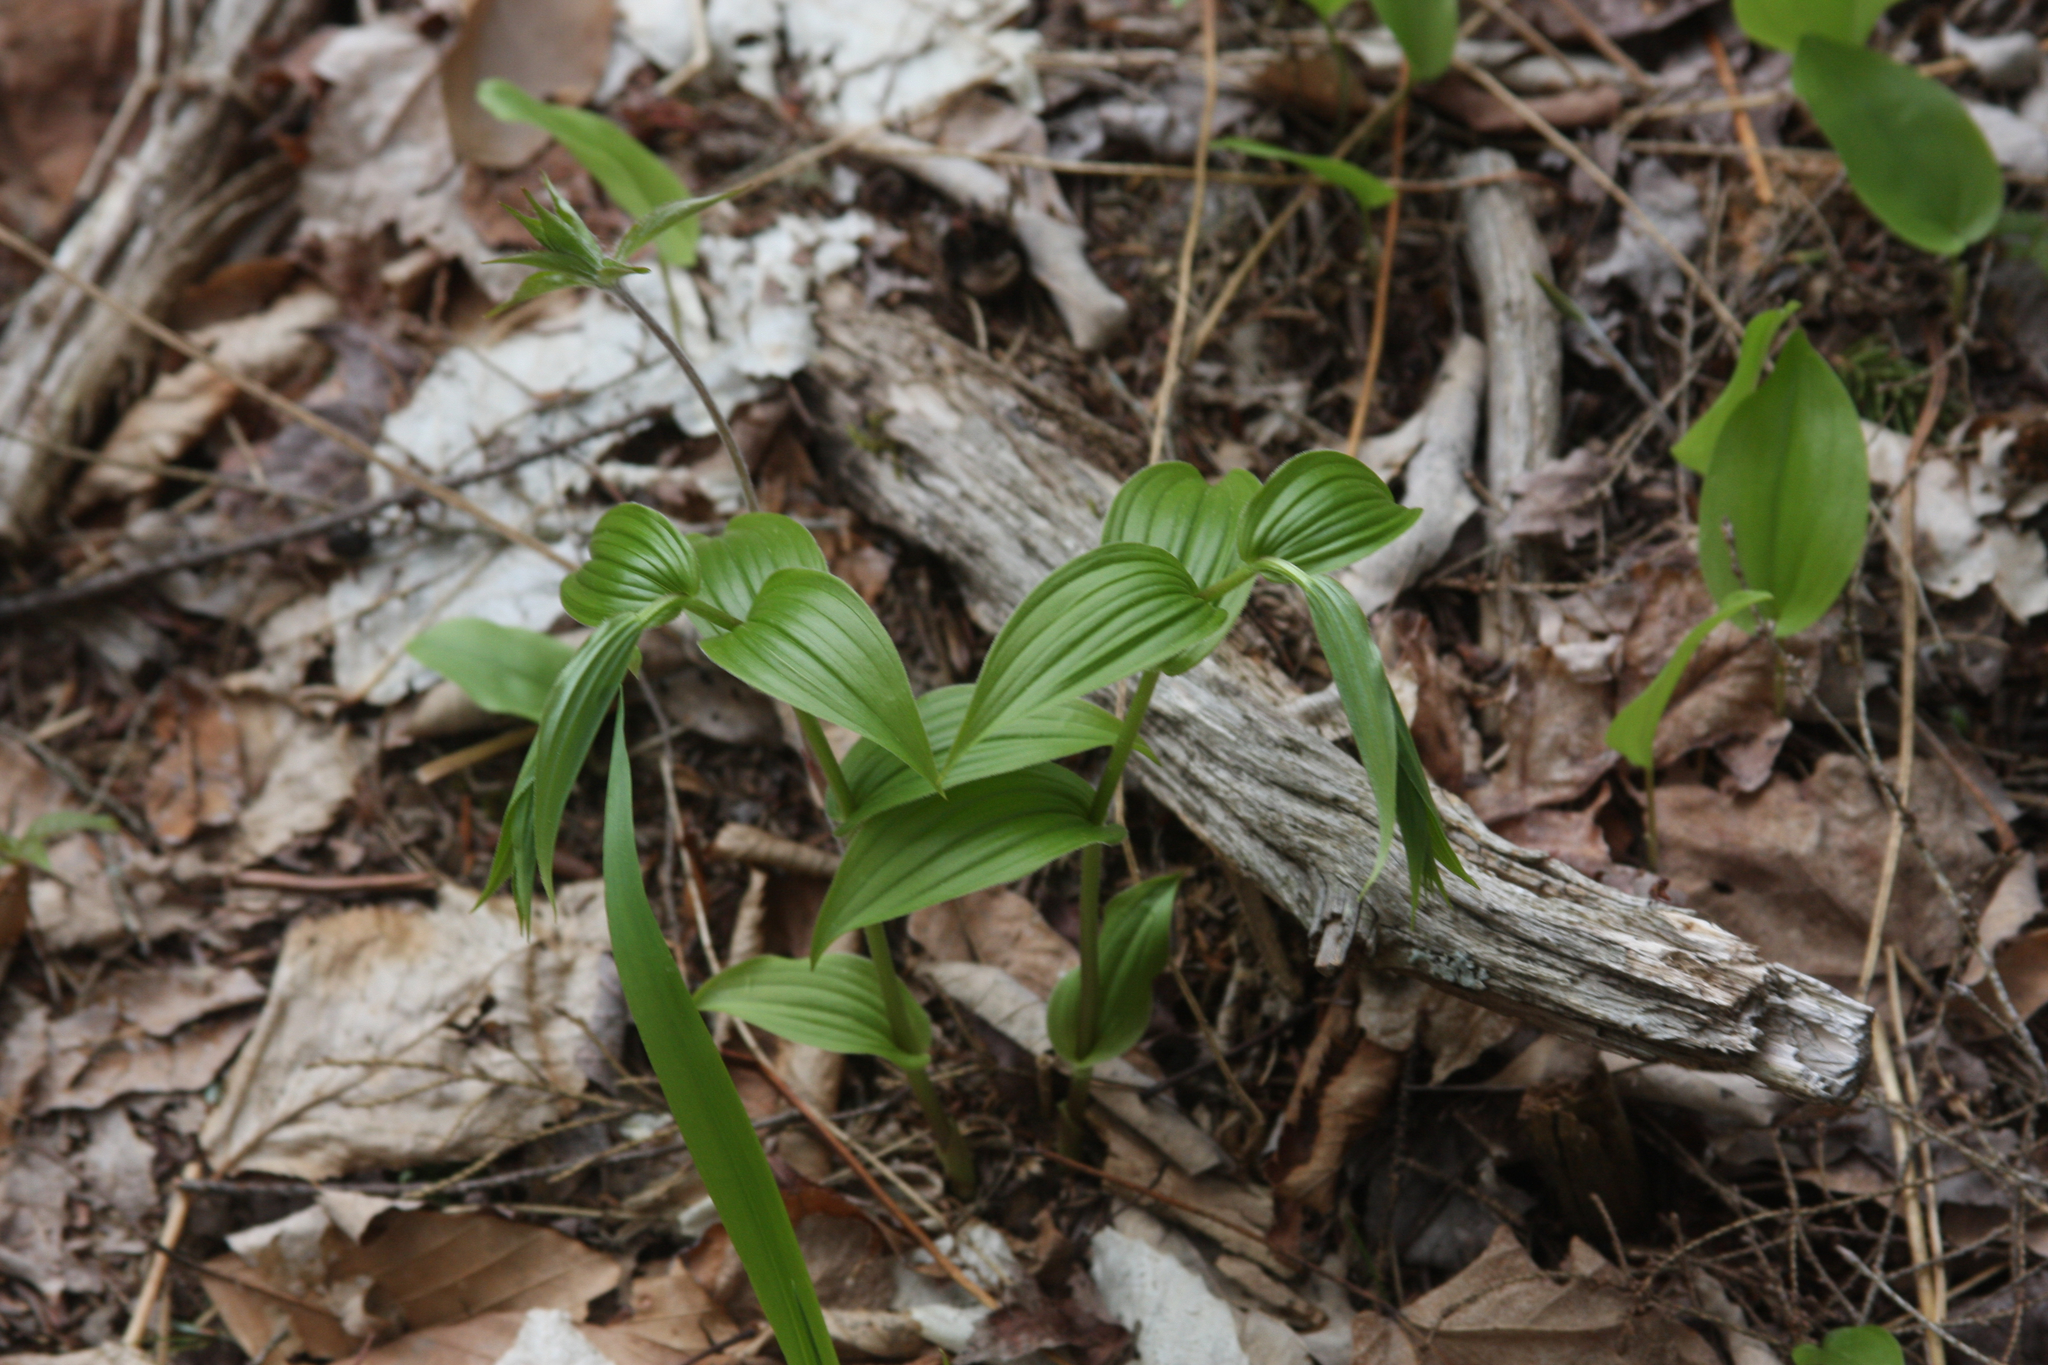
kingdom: Plantae
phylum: Tracheophyta
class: Liliopsida
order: Liliales
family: Liliaceae
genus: Streptopus
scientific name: Streptopus lanceolatus
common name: Rose mandarin
